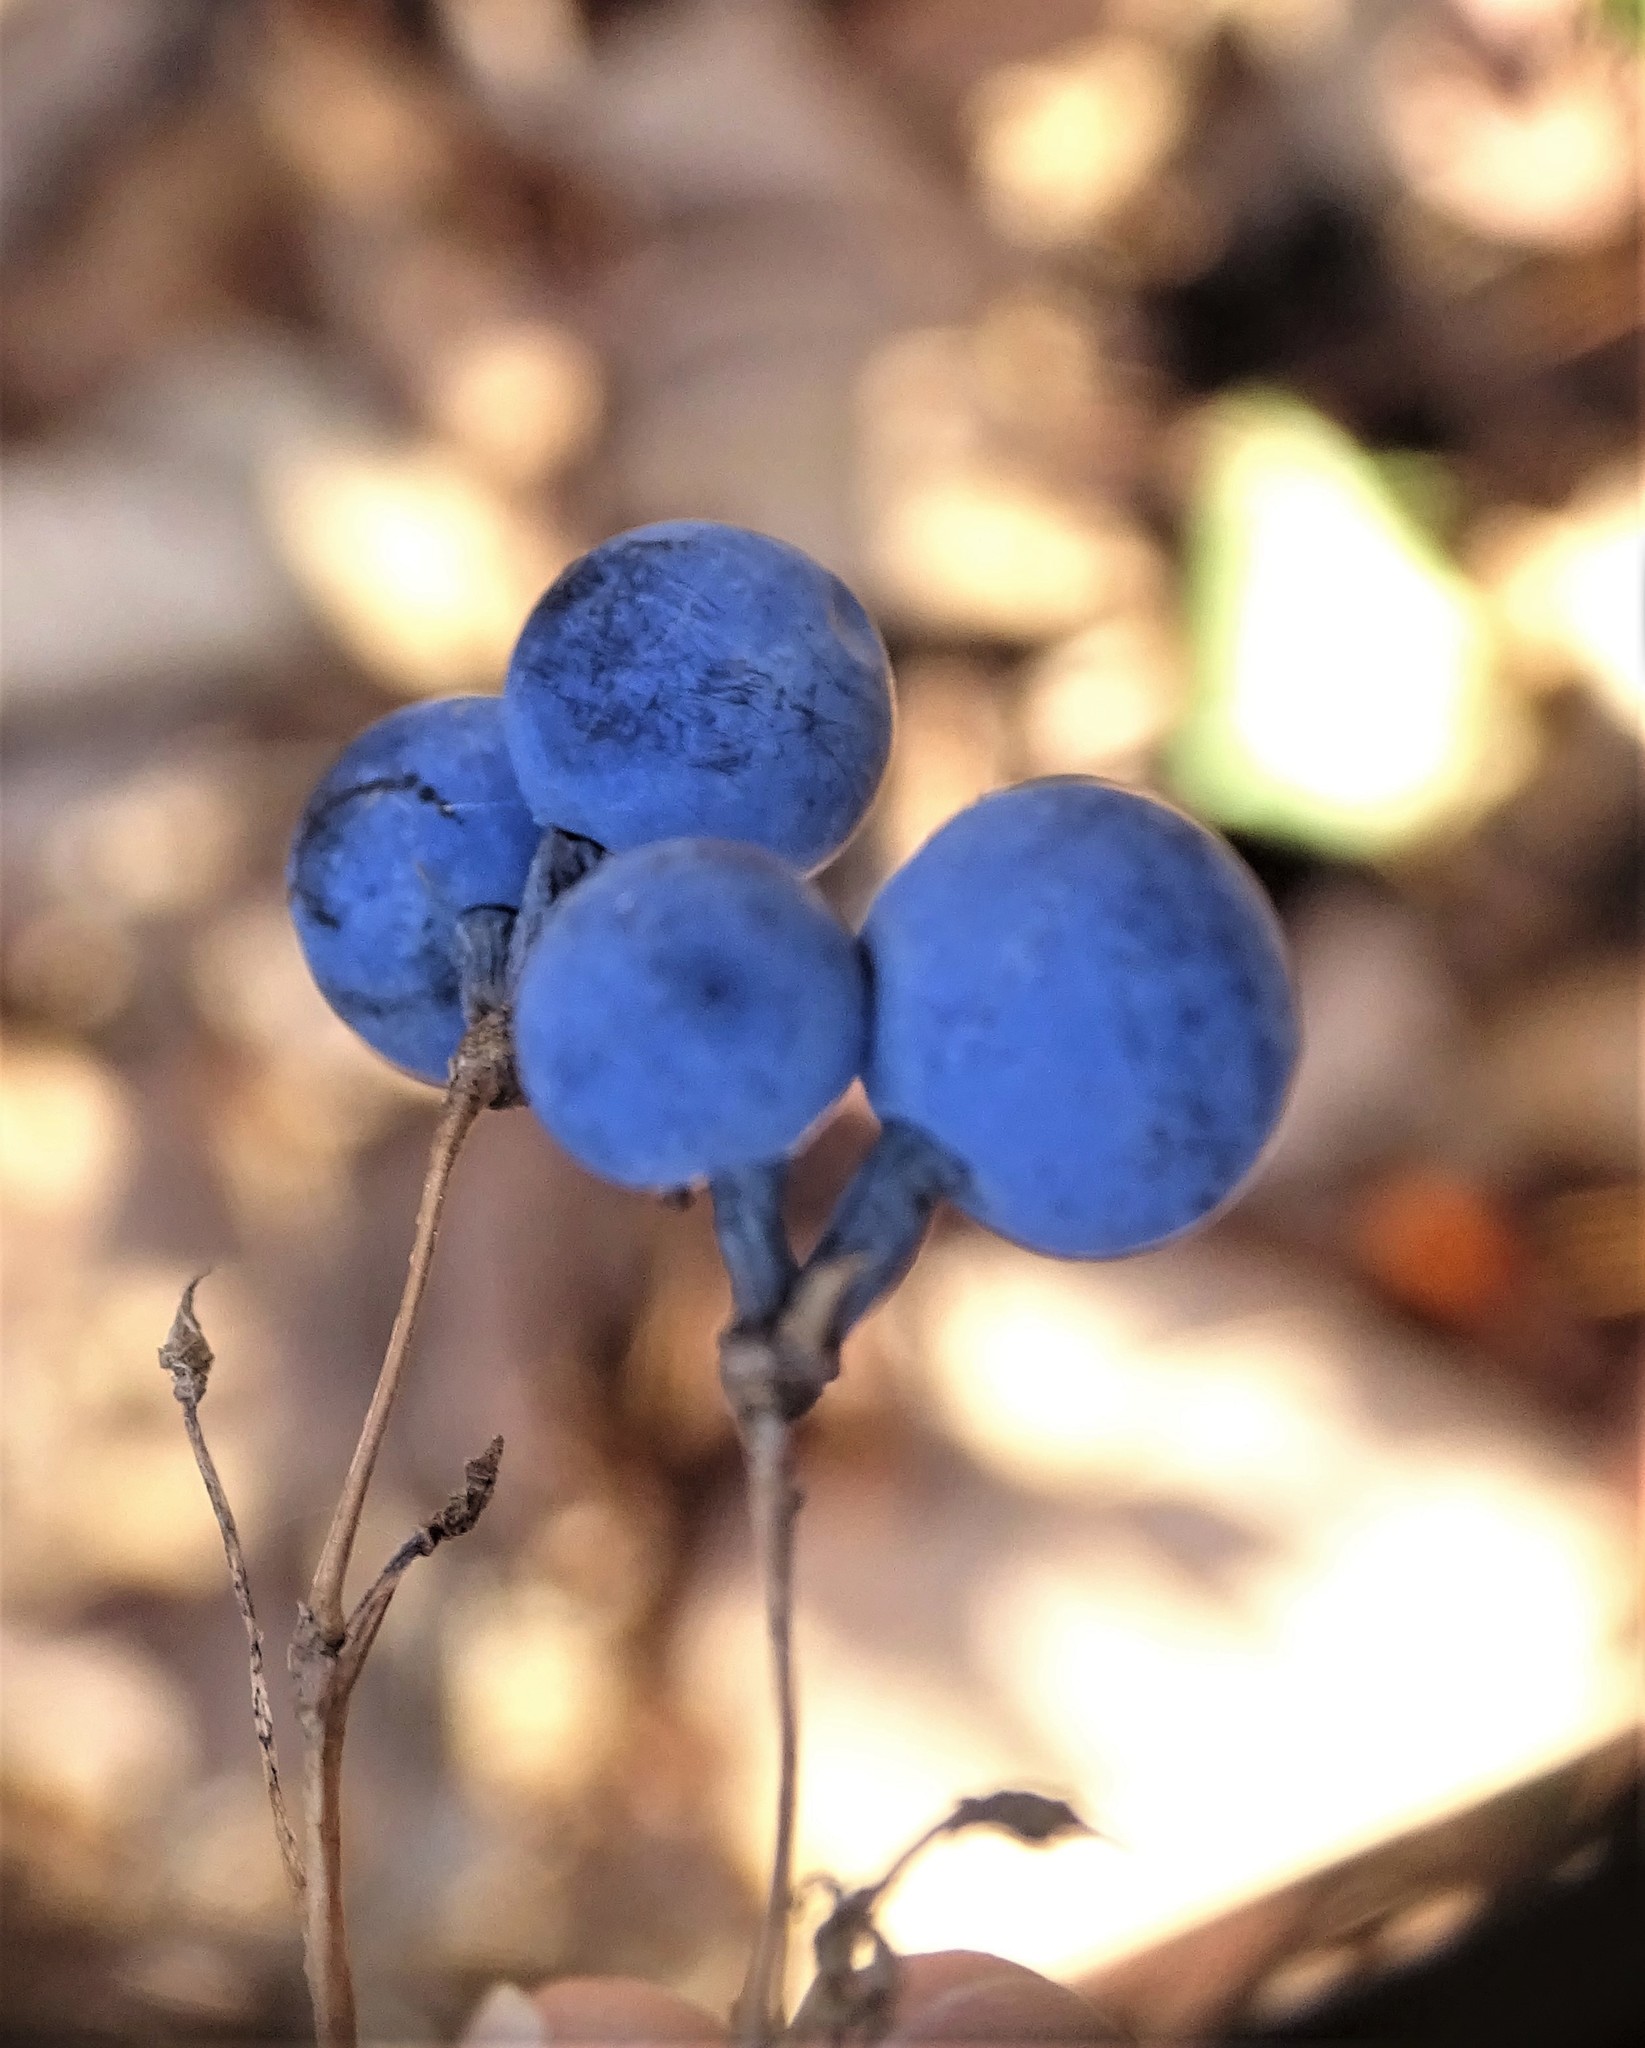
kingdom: Plantae
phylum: Tracheophyta
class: Magnoliopsida
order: Ranunculales
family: Berberidaceae
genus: Caulophyllum
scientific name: Caulophyllum thalictroides
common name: Blue cohosh
